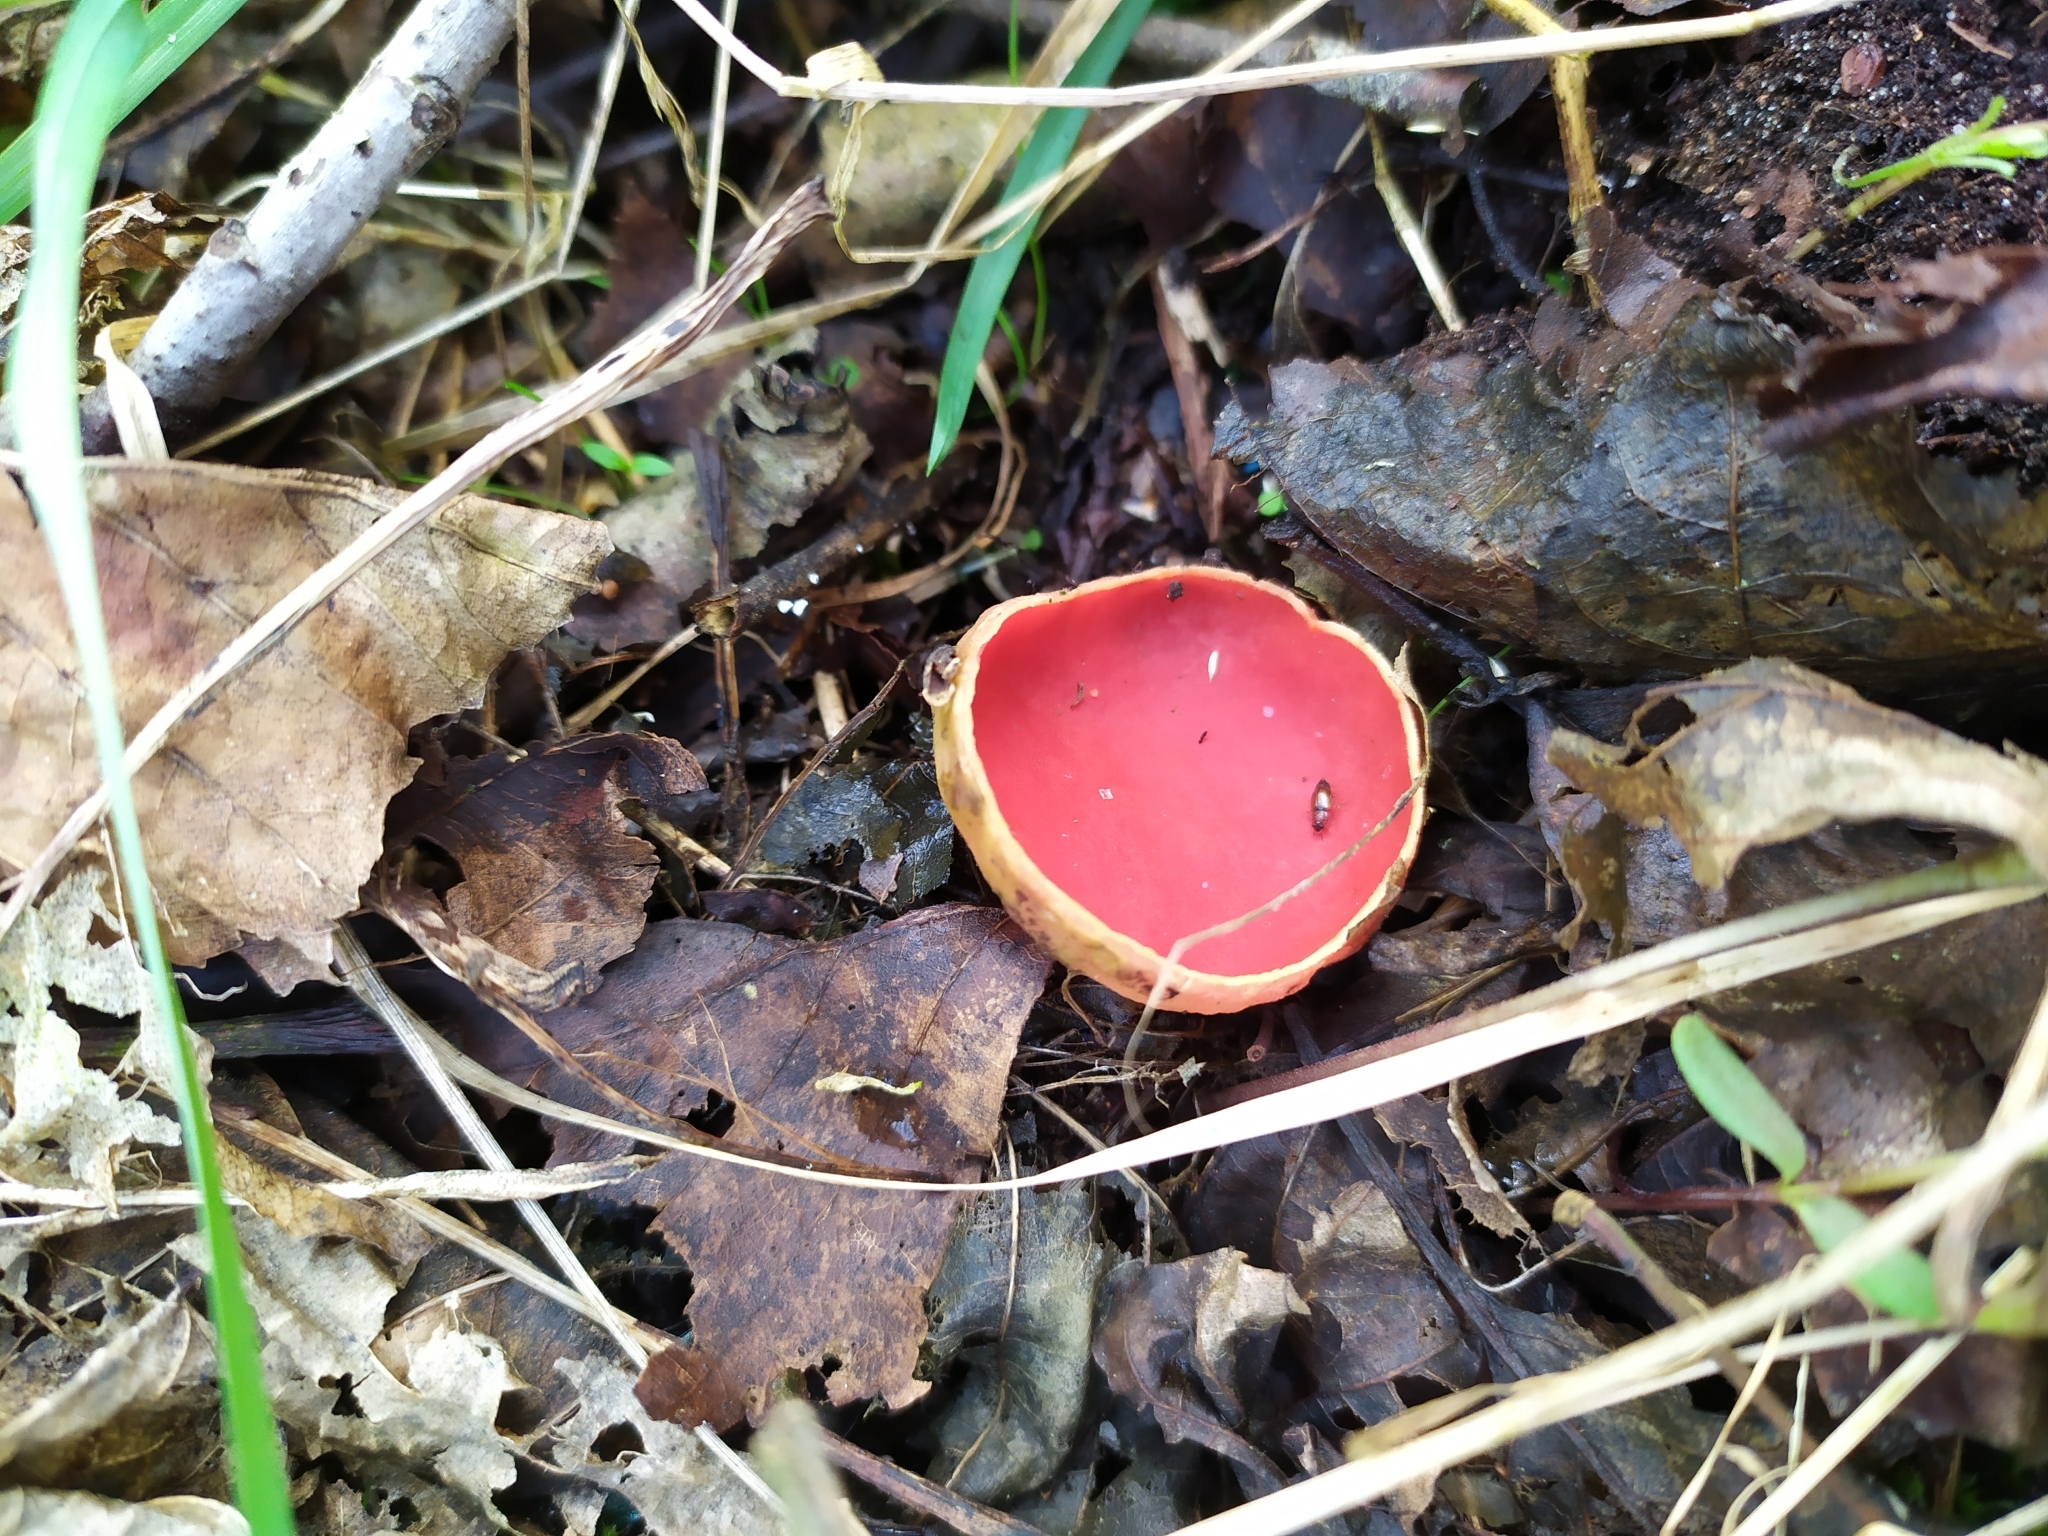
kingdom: Fungi
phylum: Ascomycota
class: Pezizomycetes
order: Pezizales
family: Sarcoscyphaceae
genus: Sarcoscypha
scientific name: Sarcoscypha
